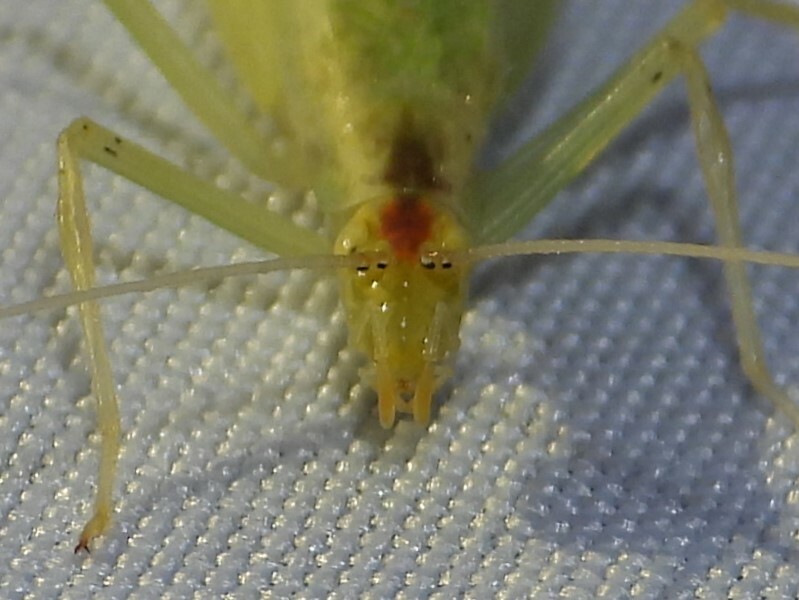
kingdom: Animalia
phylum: Arthropoda
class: Insecta
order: Orthoptera
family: Gryllidae
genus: Oecanthus
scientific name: Oecanthus niveus
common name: Narrow-winged tree cricket
